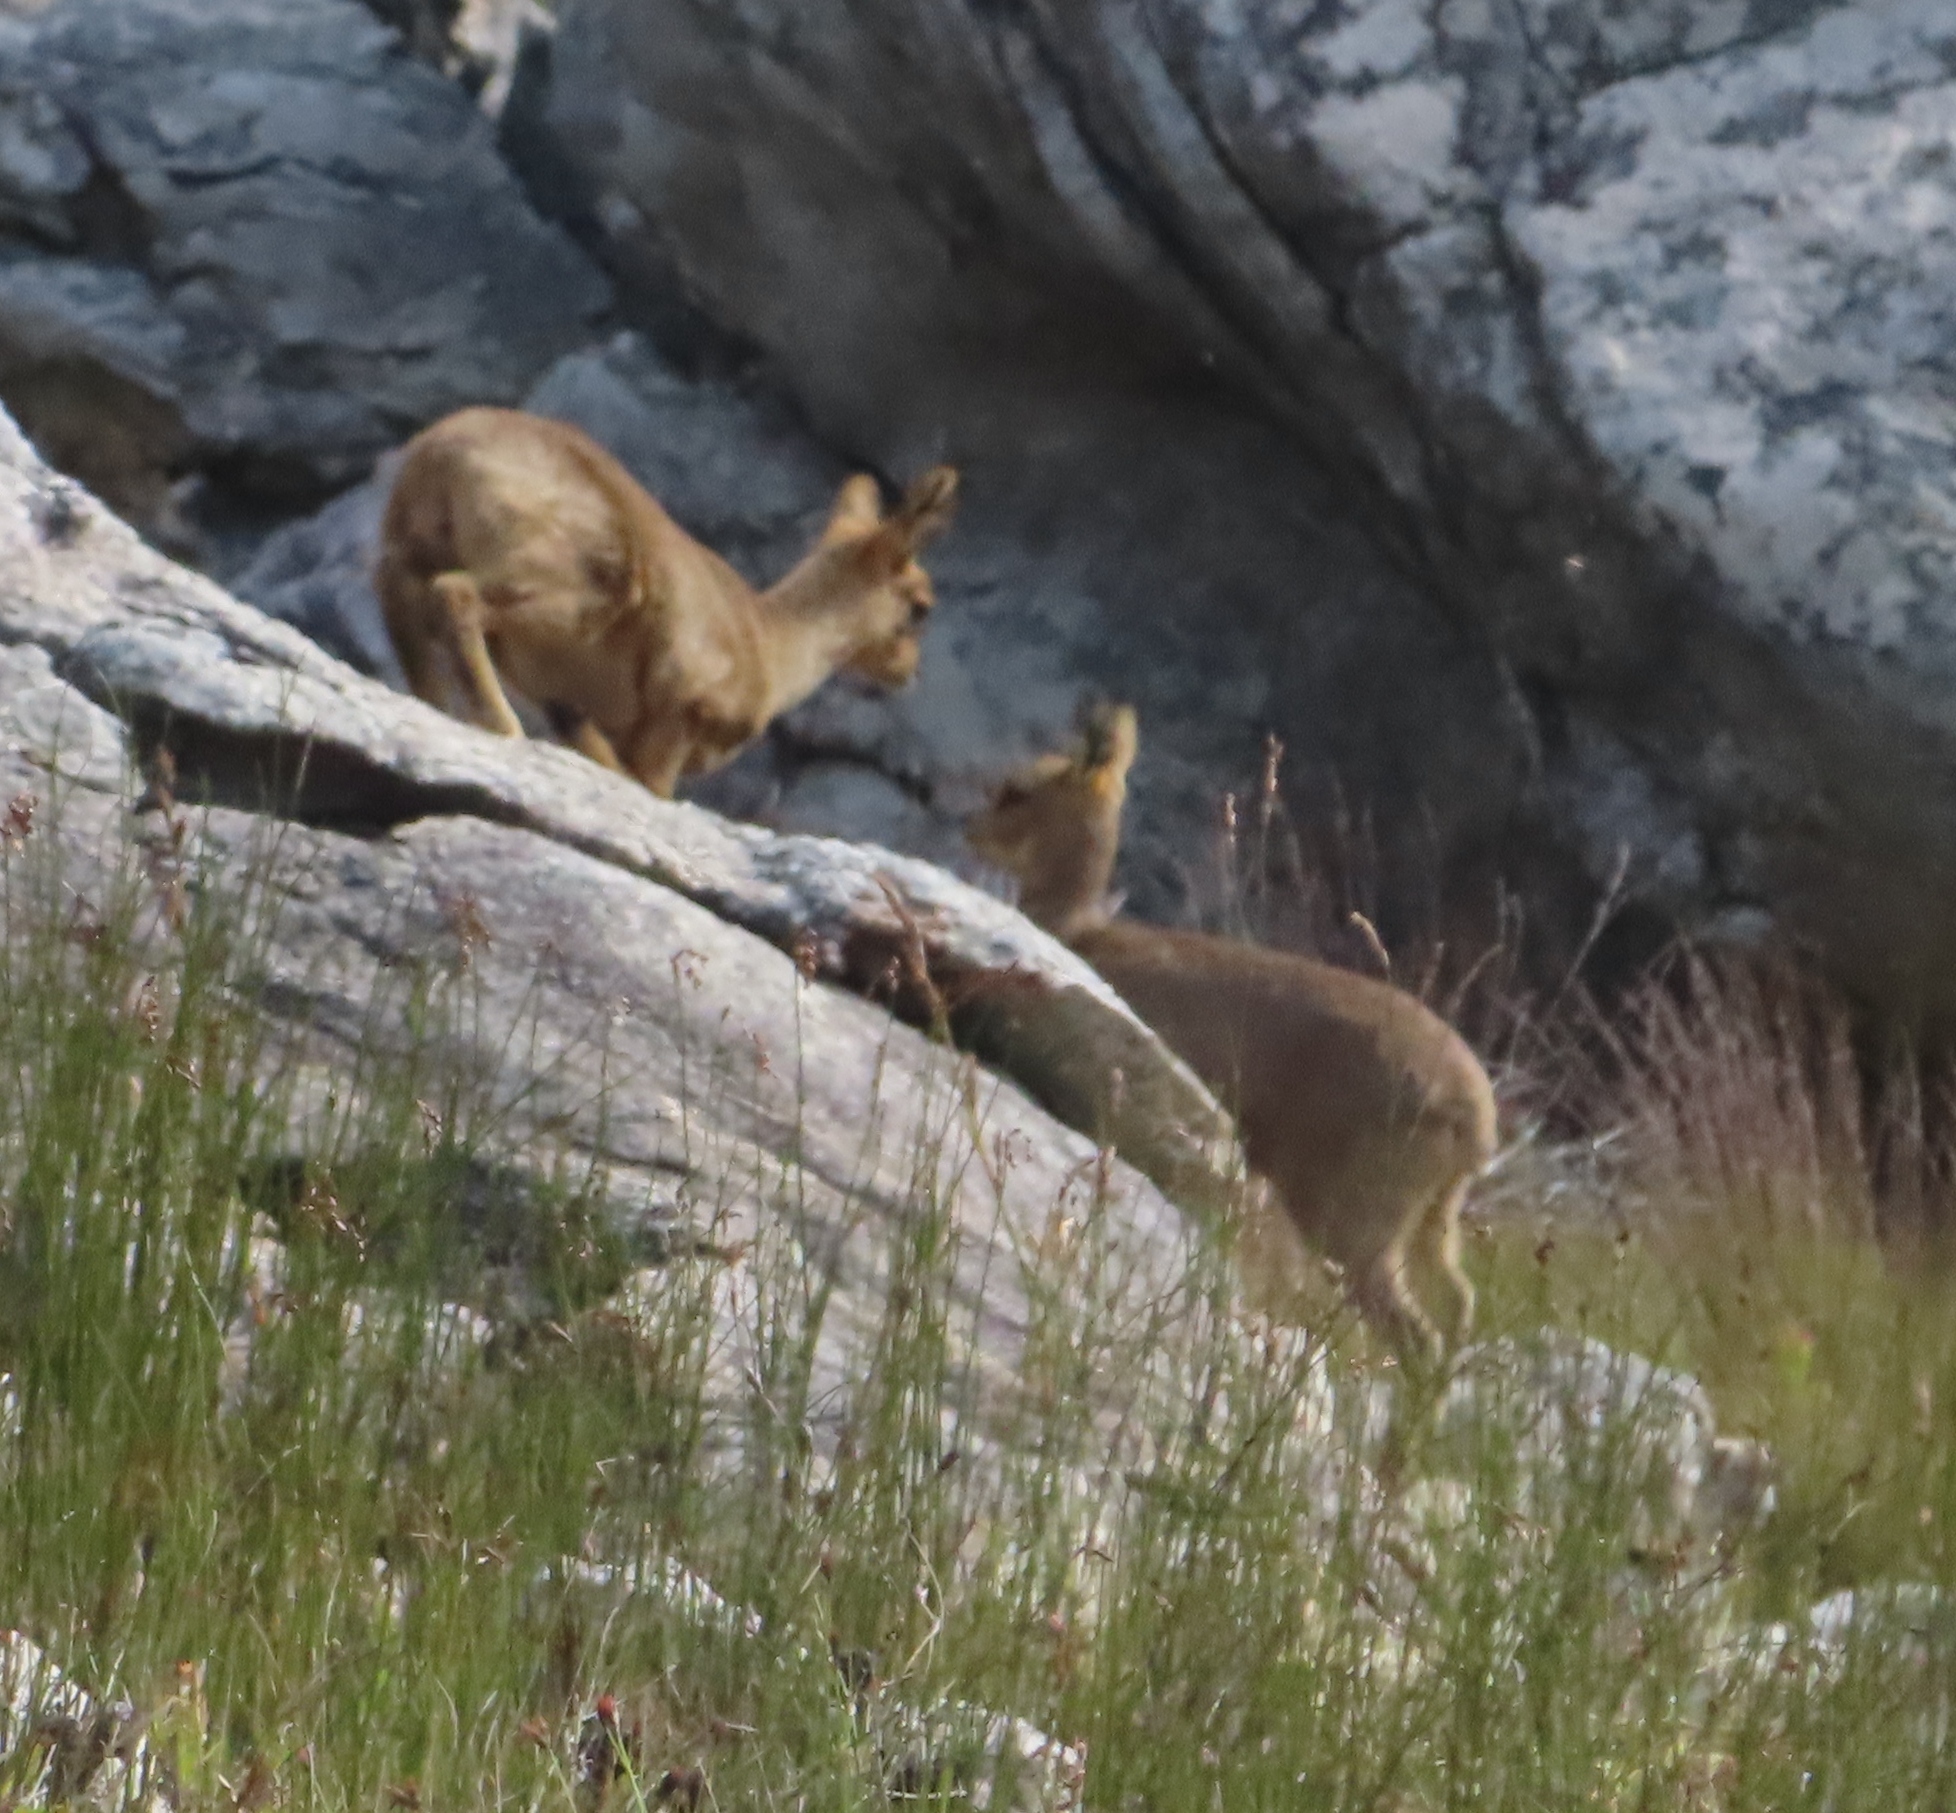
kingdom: Animalia
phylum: Chordata
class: Mammalia
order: Artiodactyla
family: Bovidae
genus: Oreotragus
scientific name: Oreotragus oreotragus
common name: Klipspringer
